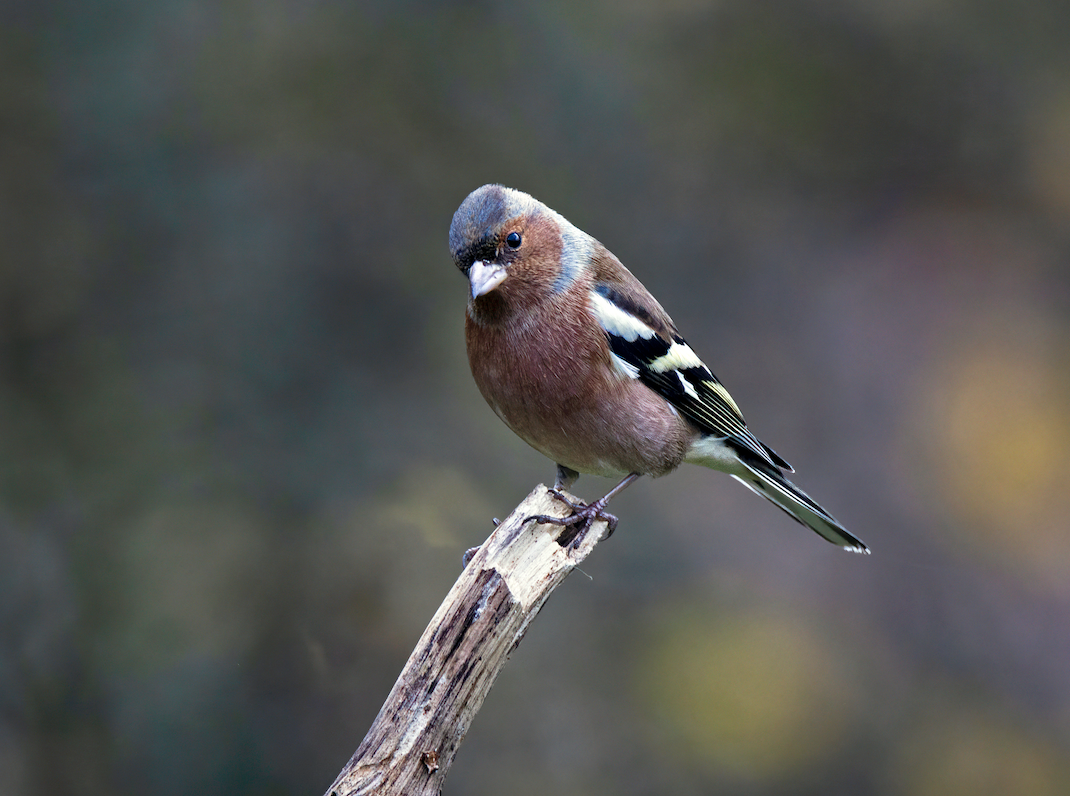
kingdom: Animalia
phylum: Chordata
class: Aves
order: Passeriformes
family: Fringillidae
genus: Fringilla
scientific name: Fringilla coelebs
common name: Common chaffinch
